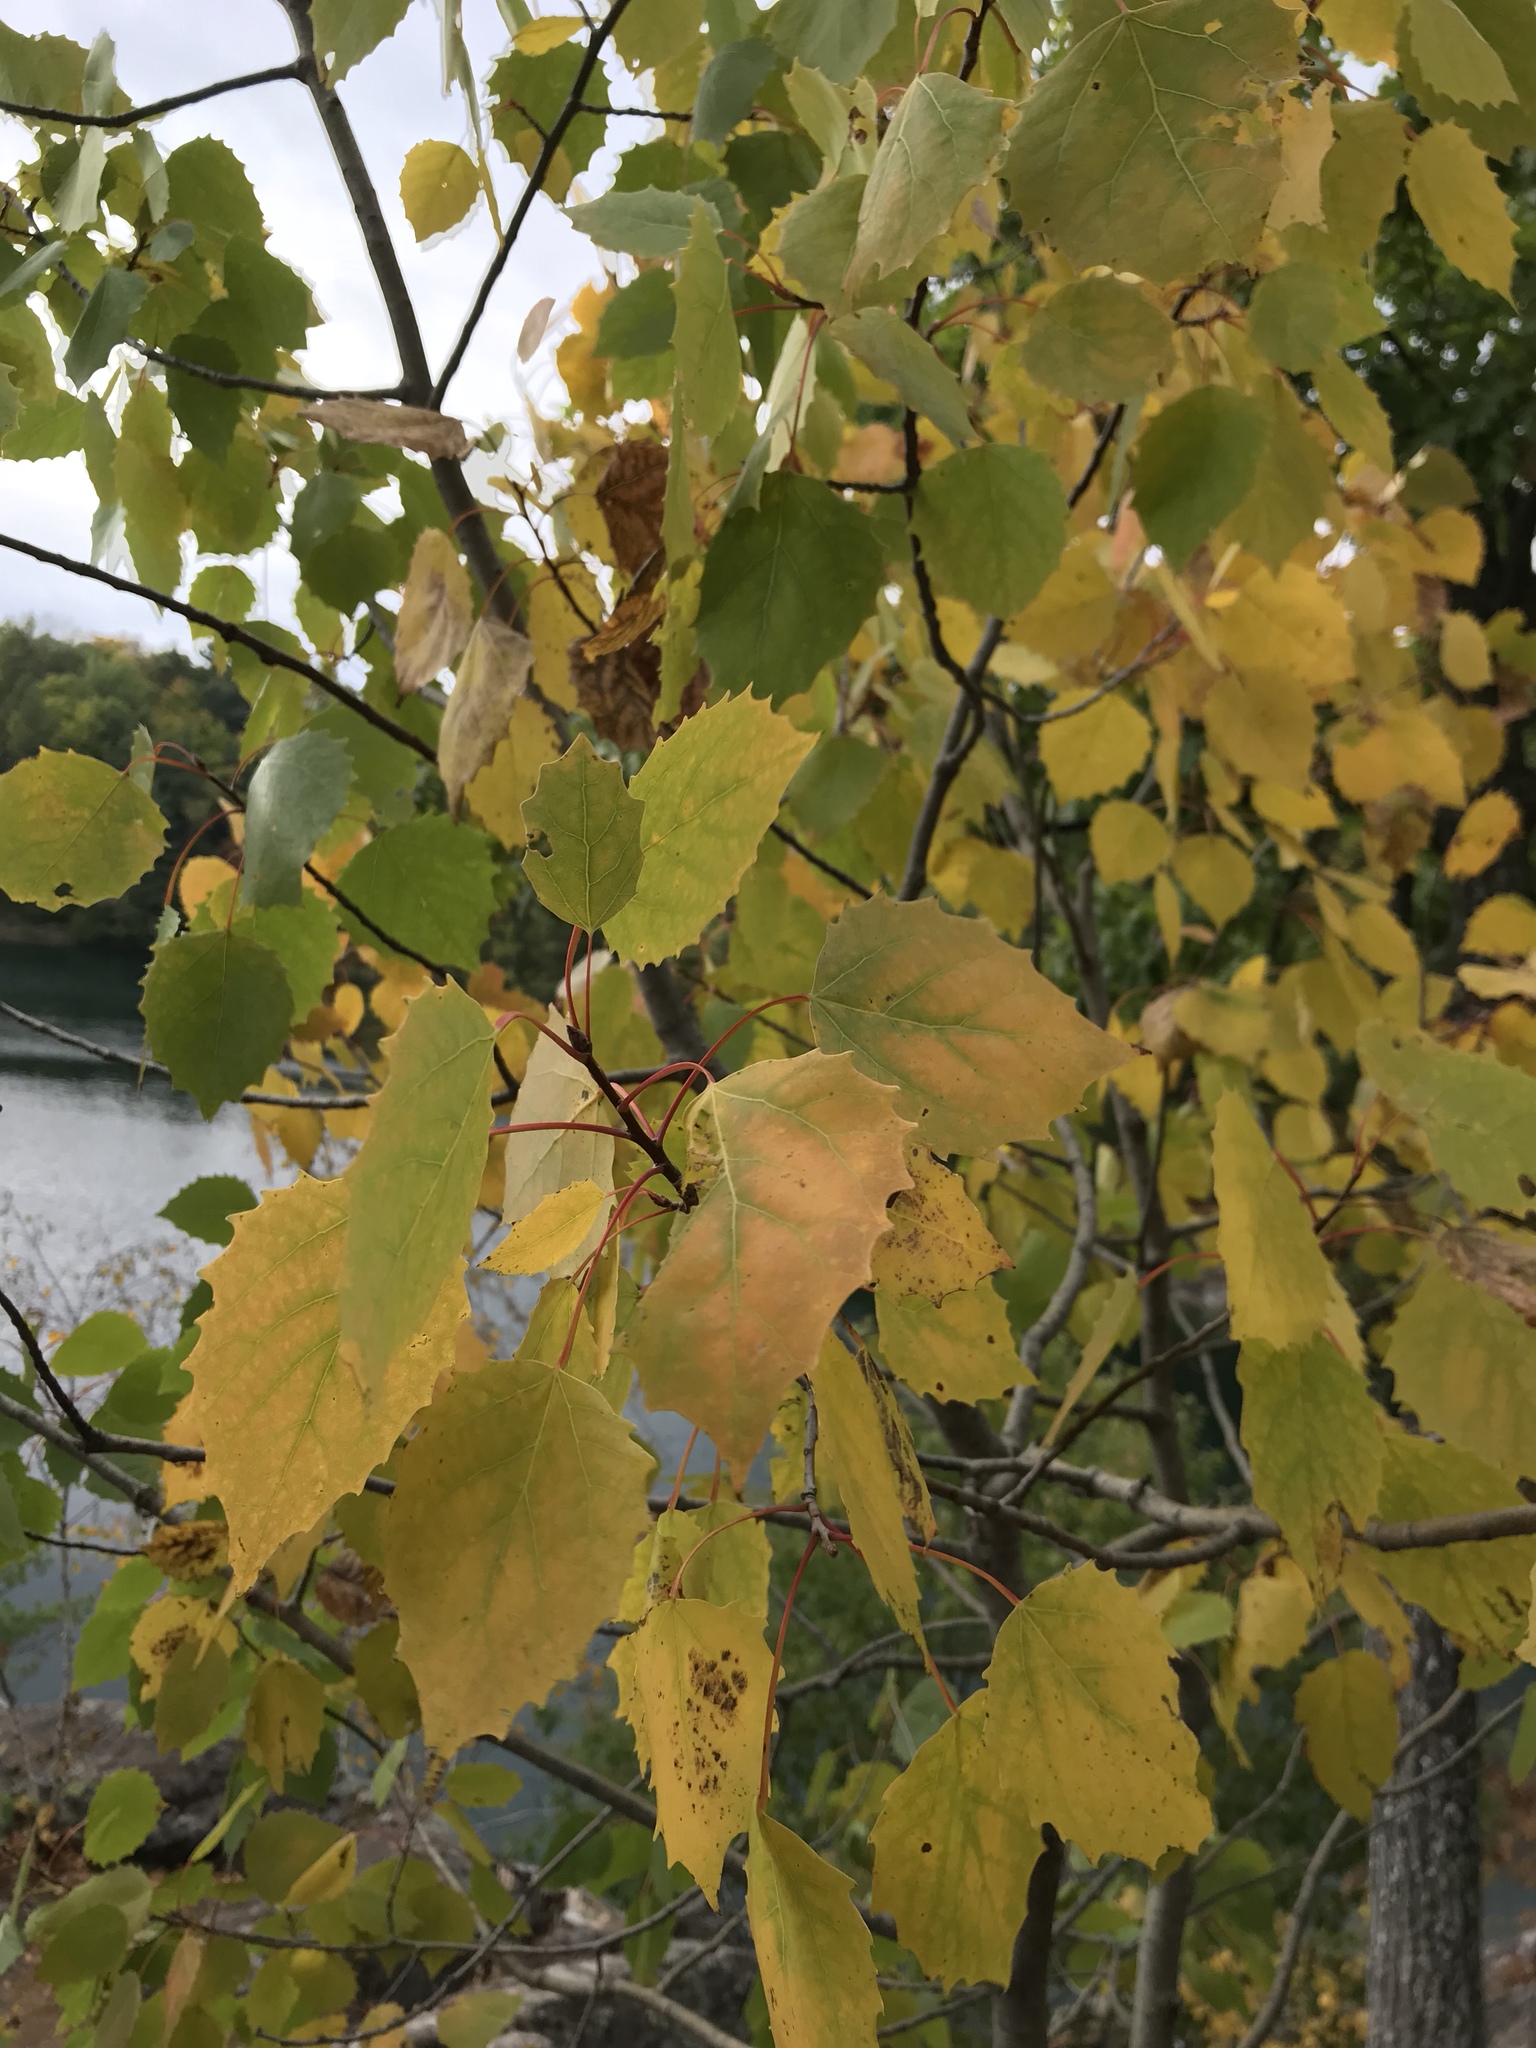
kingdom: Plantae
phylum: Tracheophyta
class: Magnoliopsida
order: Malpighiales
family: Salicaceae
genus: Populus
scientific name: Populus grandidentata
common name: Bigtooth aspen
